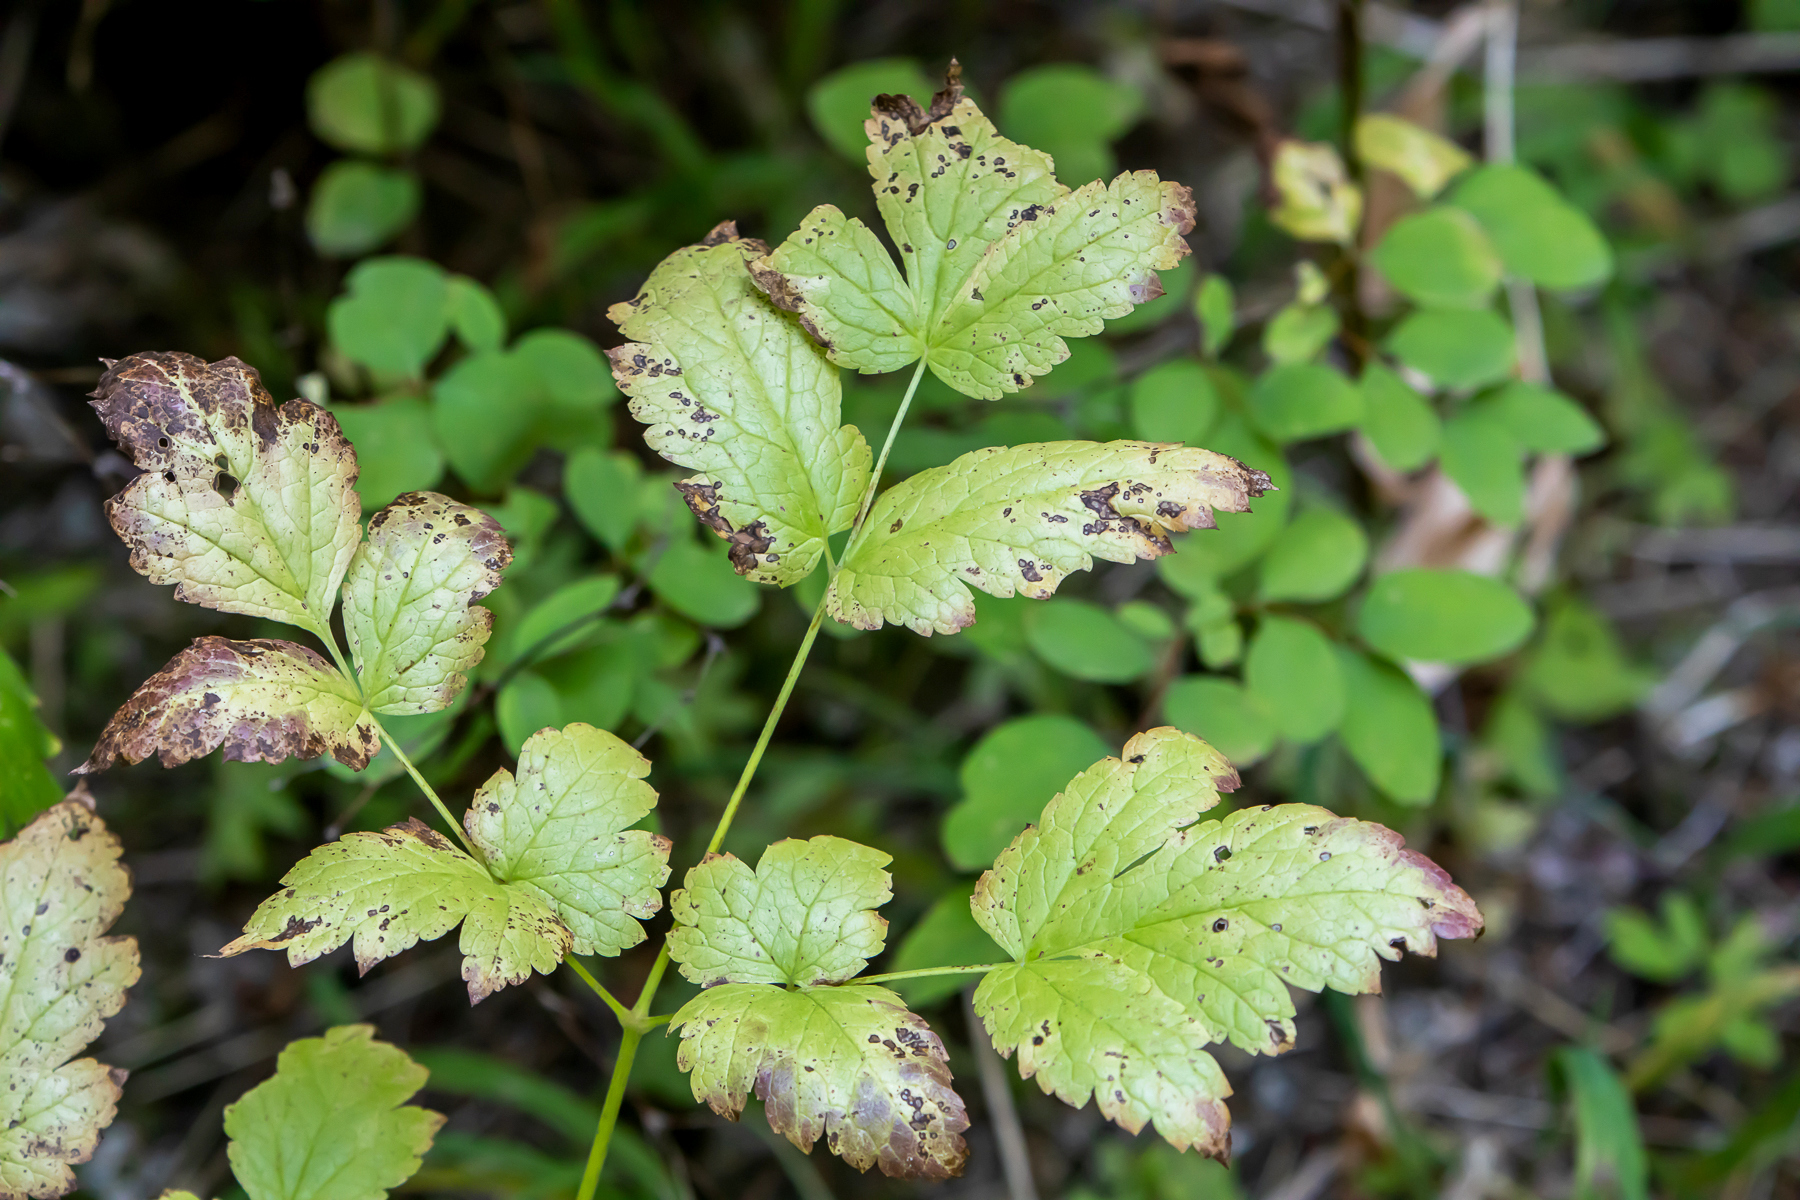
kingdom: Plantae
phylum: Tracheophyta
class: Magnoliopsida
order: Ranunculales
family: Ranunculaceae
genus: Actaea
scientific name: Actaea rubra
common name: Red baneberry
